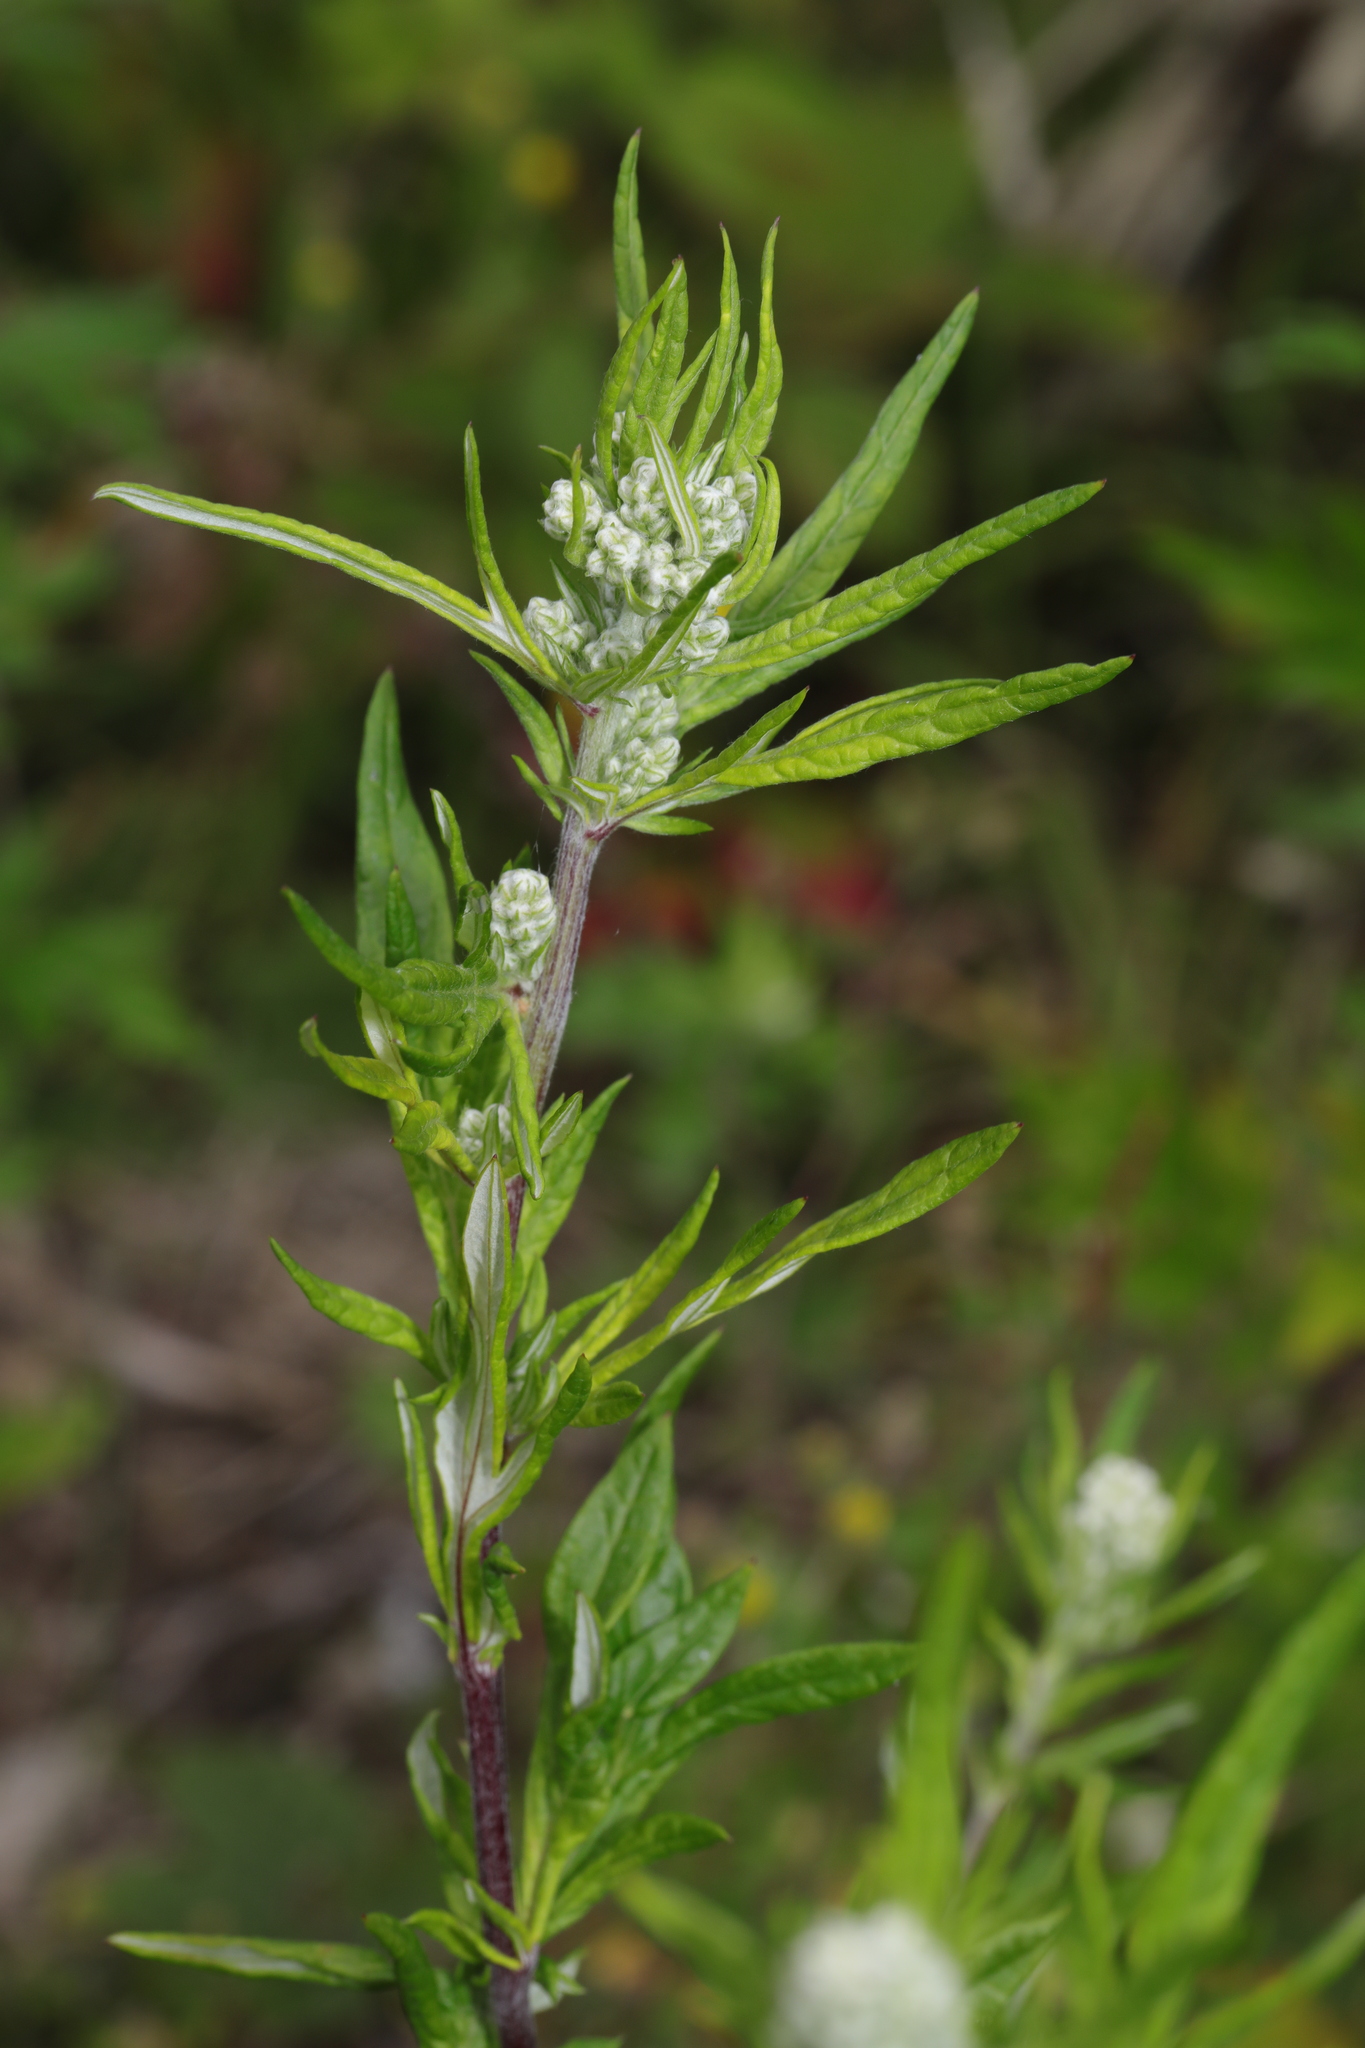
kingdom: Plantae
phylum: Tracheophyta
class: Magnoliopsida
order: Asterales
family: Asteraceae
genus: Artemisia
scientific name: Artemisia vulgaris
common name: Mugwort
